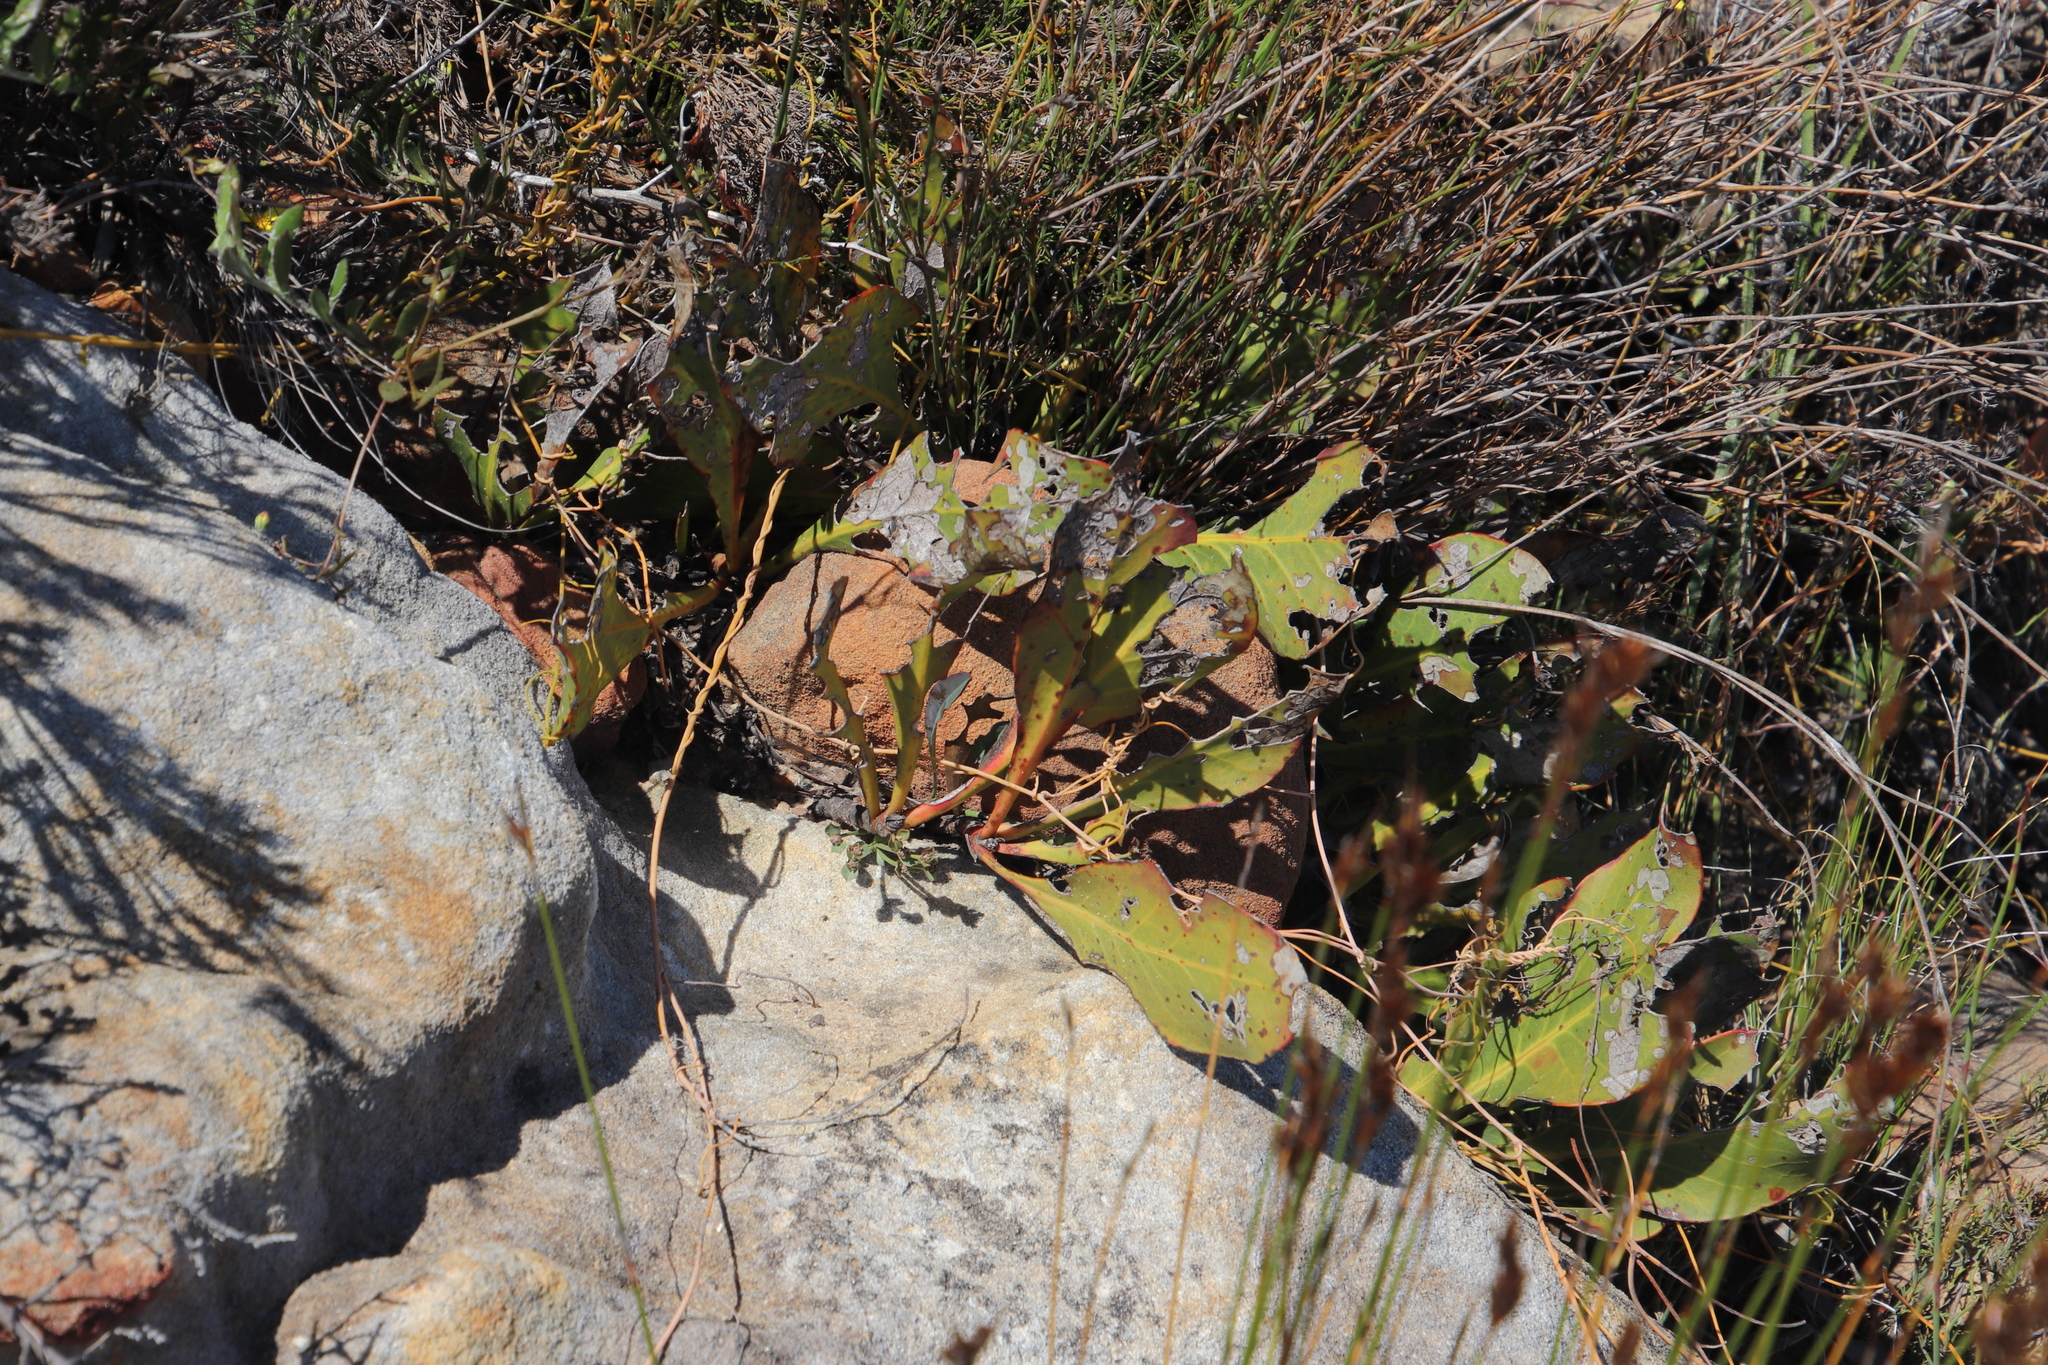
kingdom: Plantae
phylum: Tracheophyta
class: Magnoliopsida
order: Proteales
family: Proteaceae
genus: Protea
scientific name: Protea acaulos
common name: Common ground sugarbush
